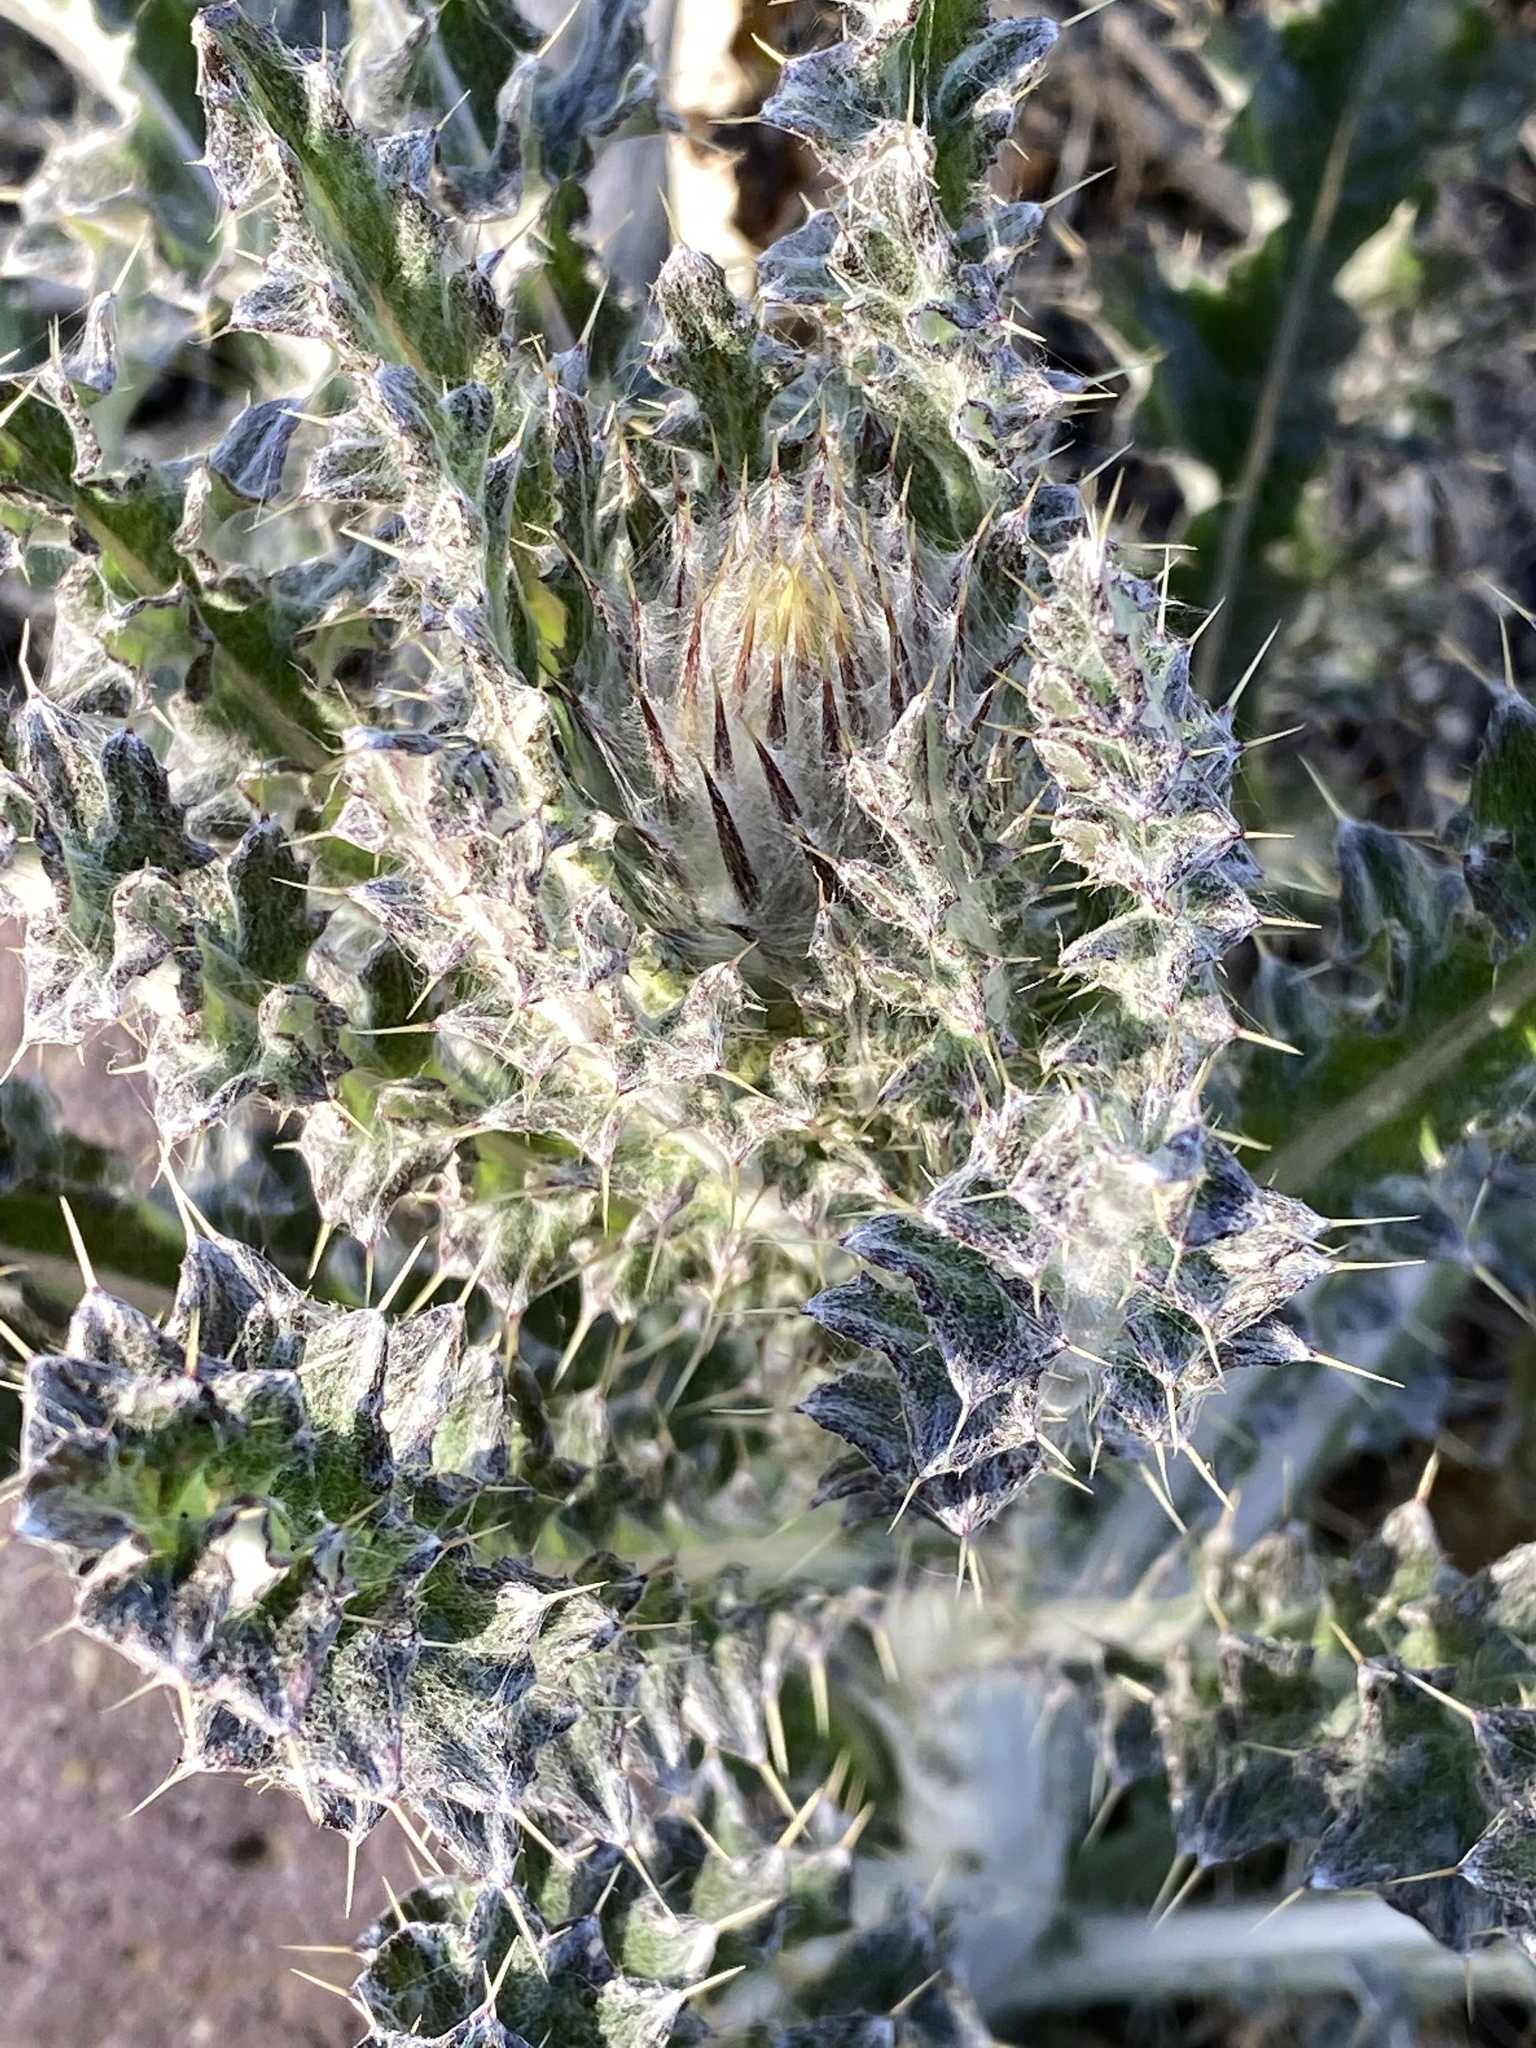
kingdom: Plantae
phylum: Tracheophyta
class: Magnoliopsida
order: Asterales
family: Asteraceae
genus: Cirsium
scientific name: Cirsium occidentale
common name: Western thistle
